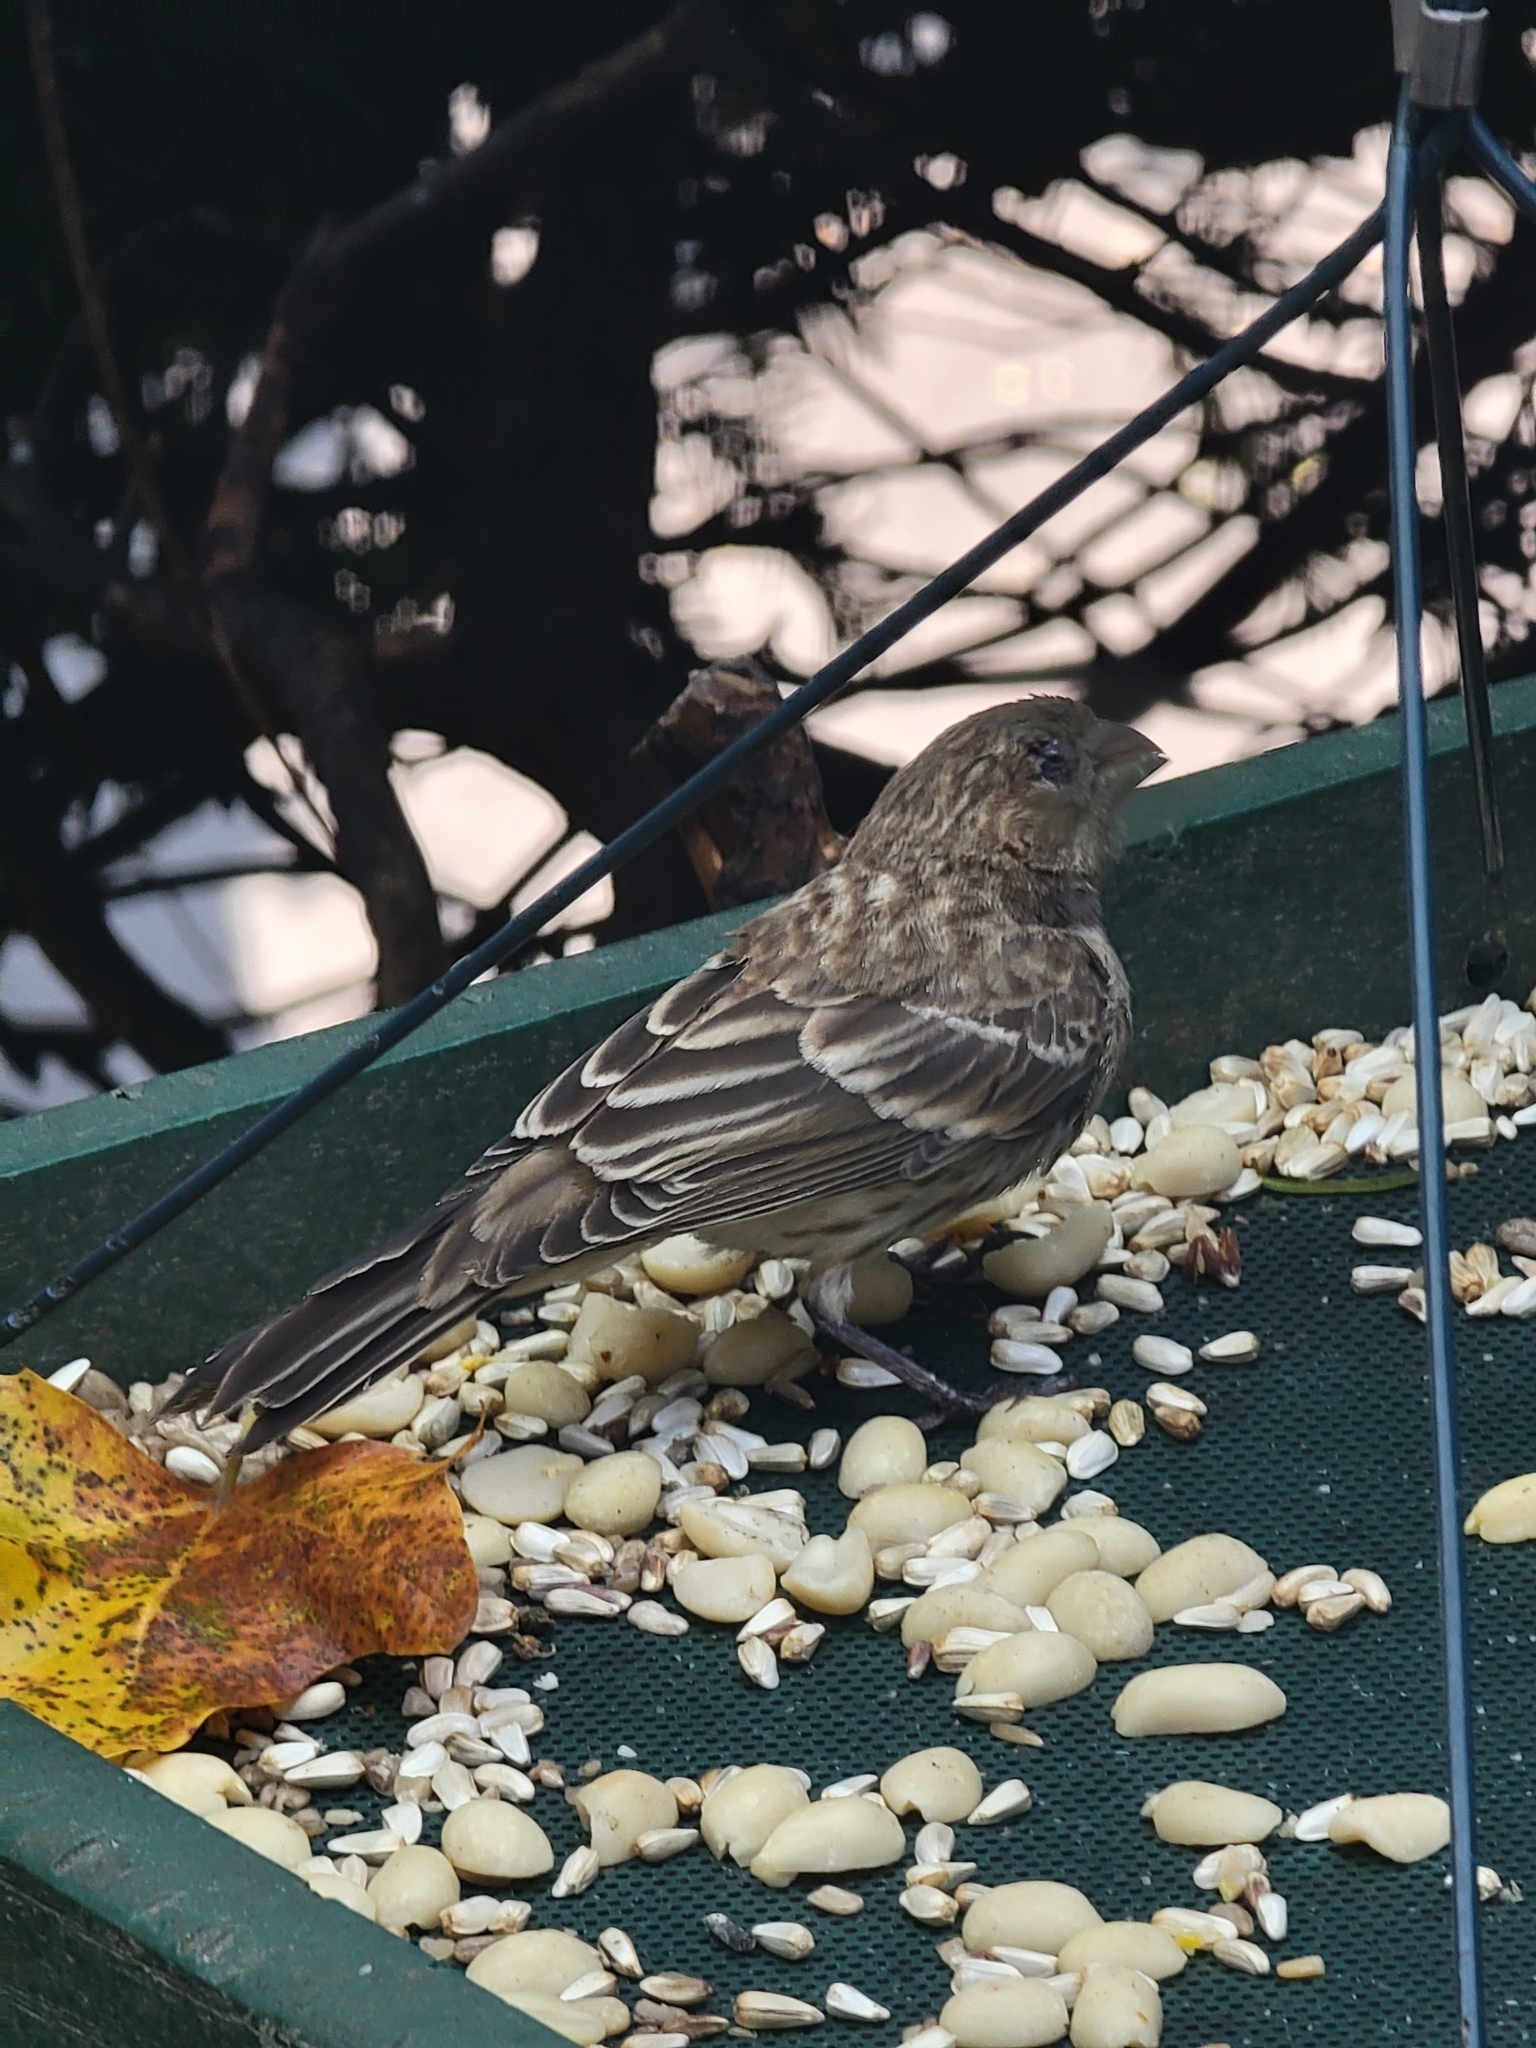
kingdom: Animalia
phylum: Chordata
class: Aves
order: Passeriformes
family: Fringillidae
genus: Haemorhous
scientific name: Haemorhous mexicanus
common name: House finch
